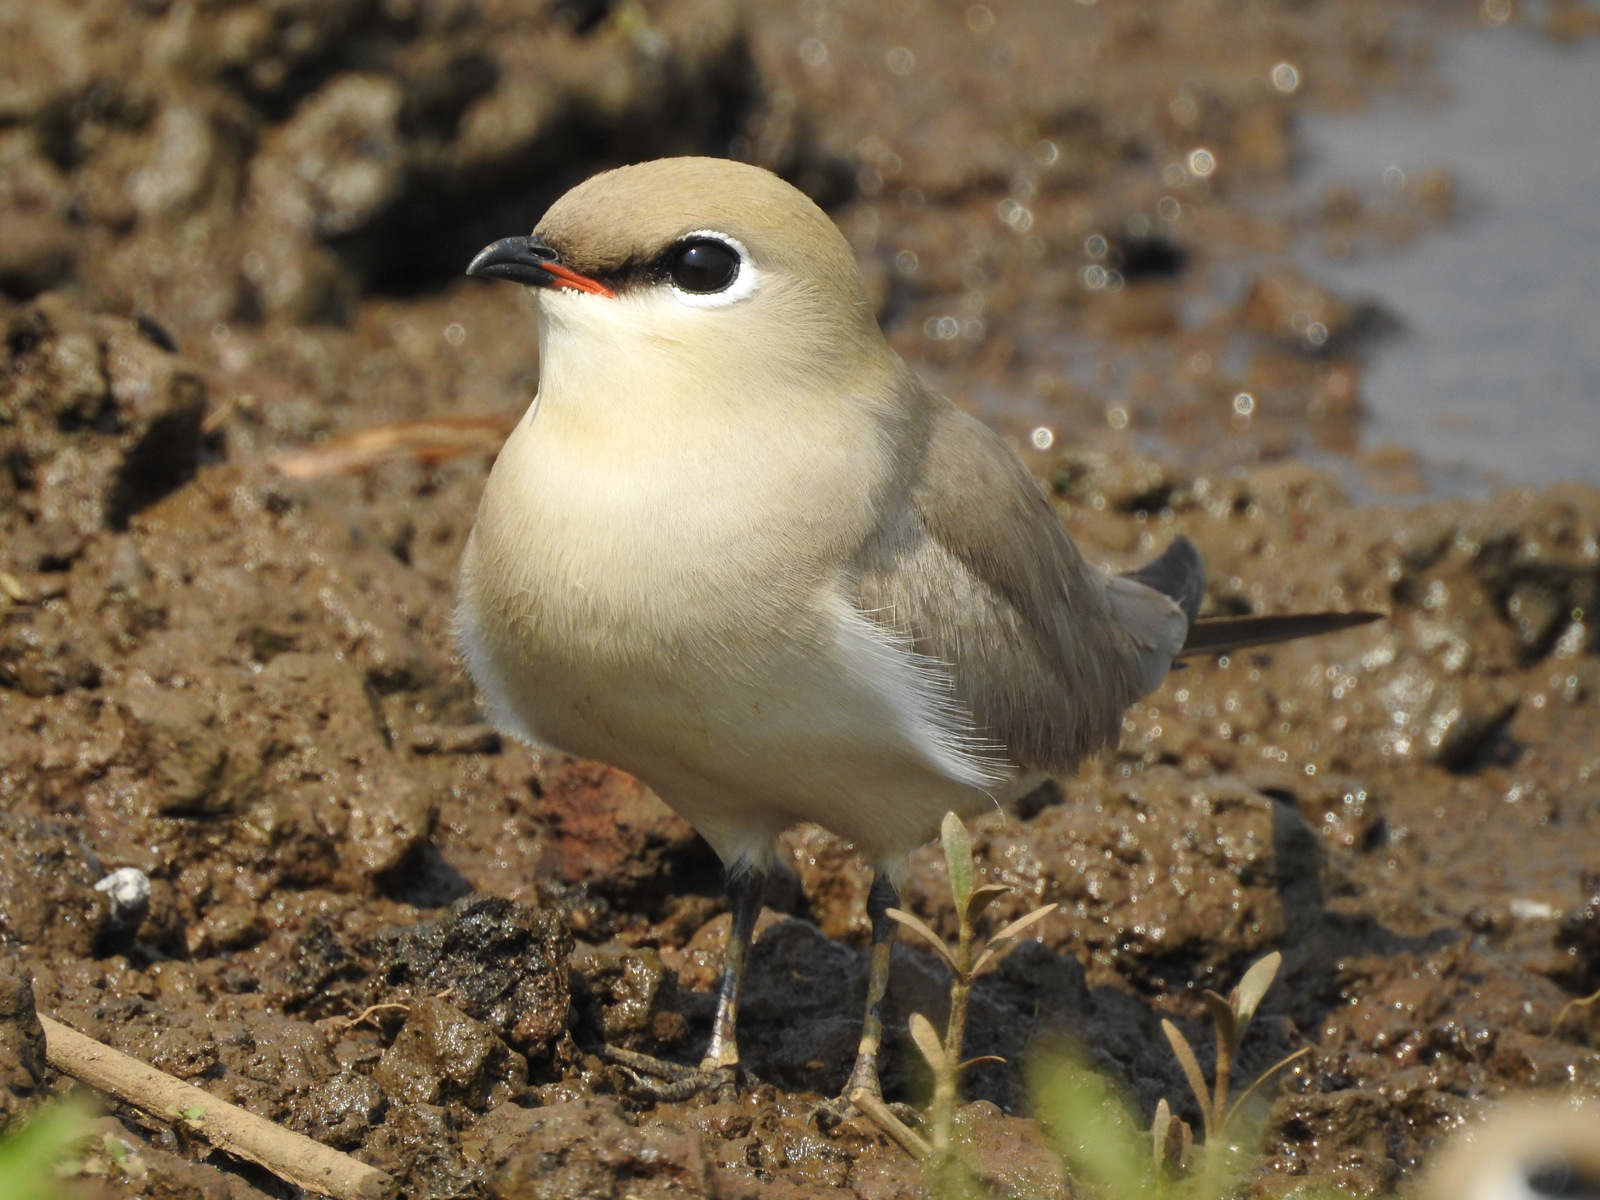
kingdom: Animalia
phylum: Chordata
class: Aves
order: Charadriiformes
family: Glareolidae
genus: Glareola
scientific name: Glareola lactea
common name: Small pratincole
